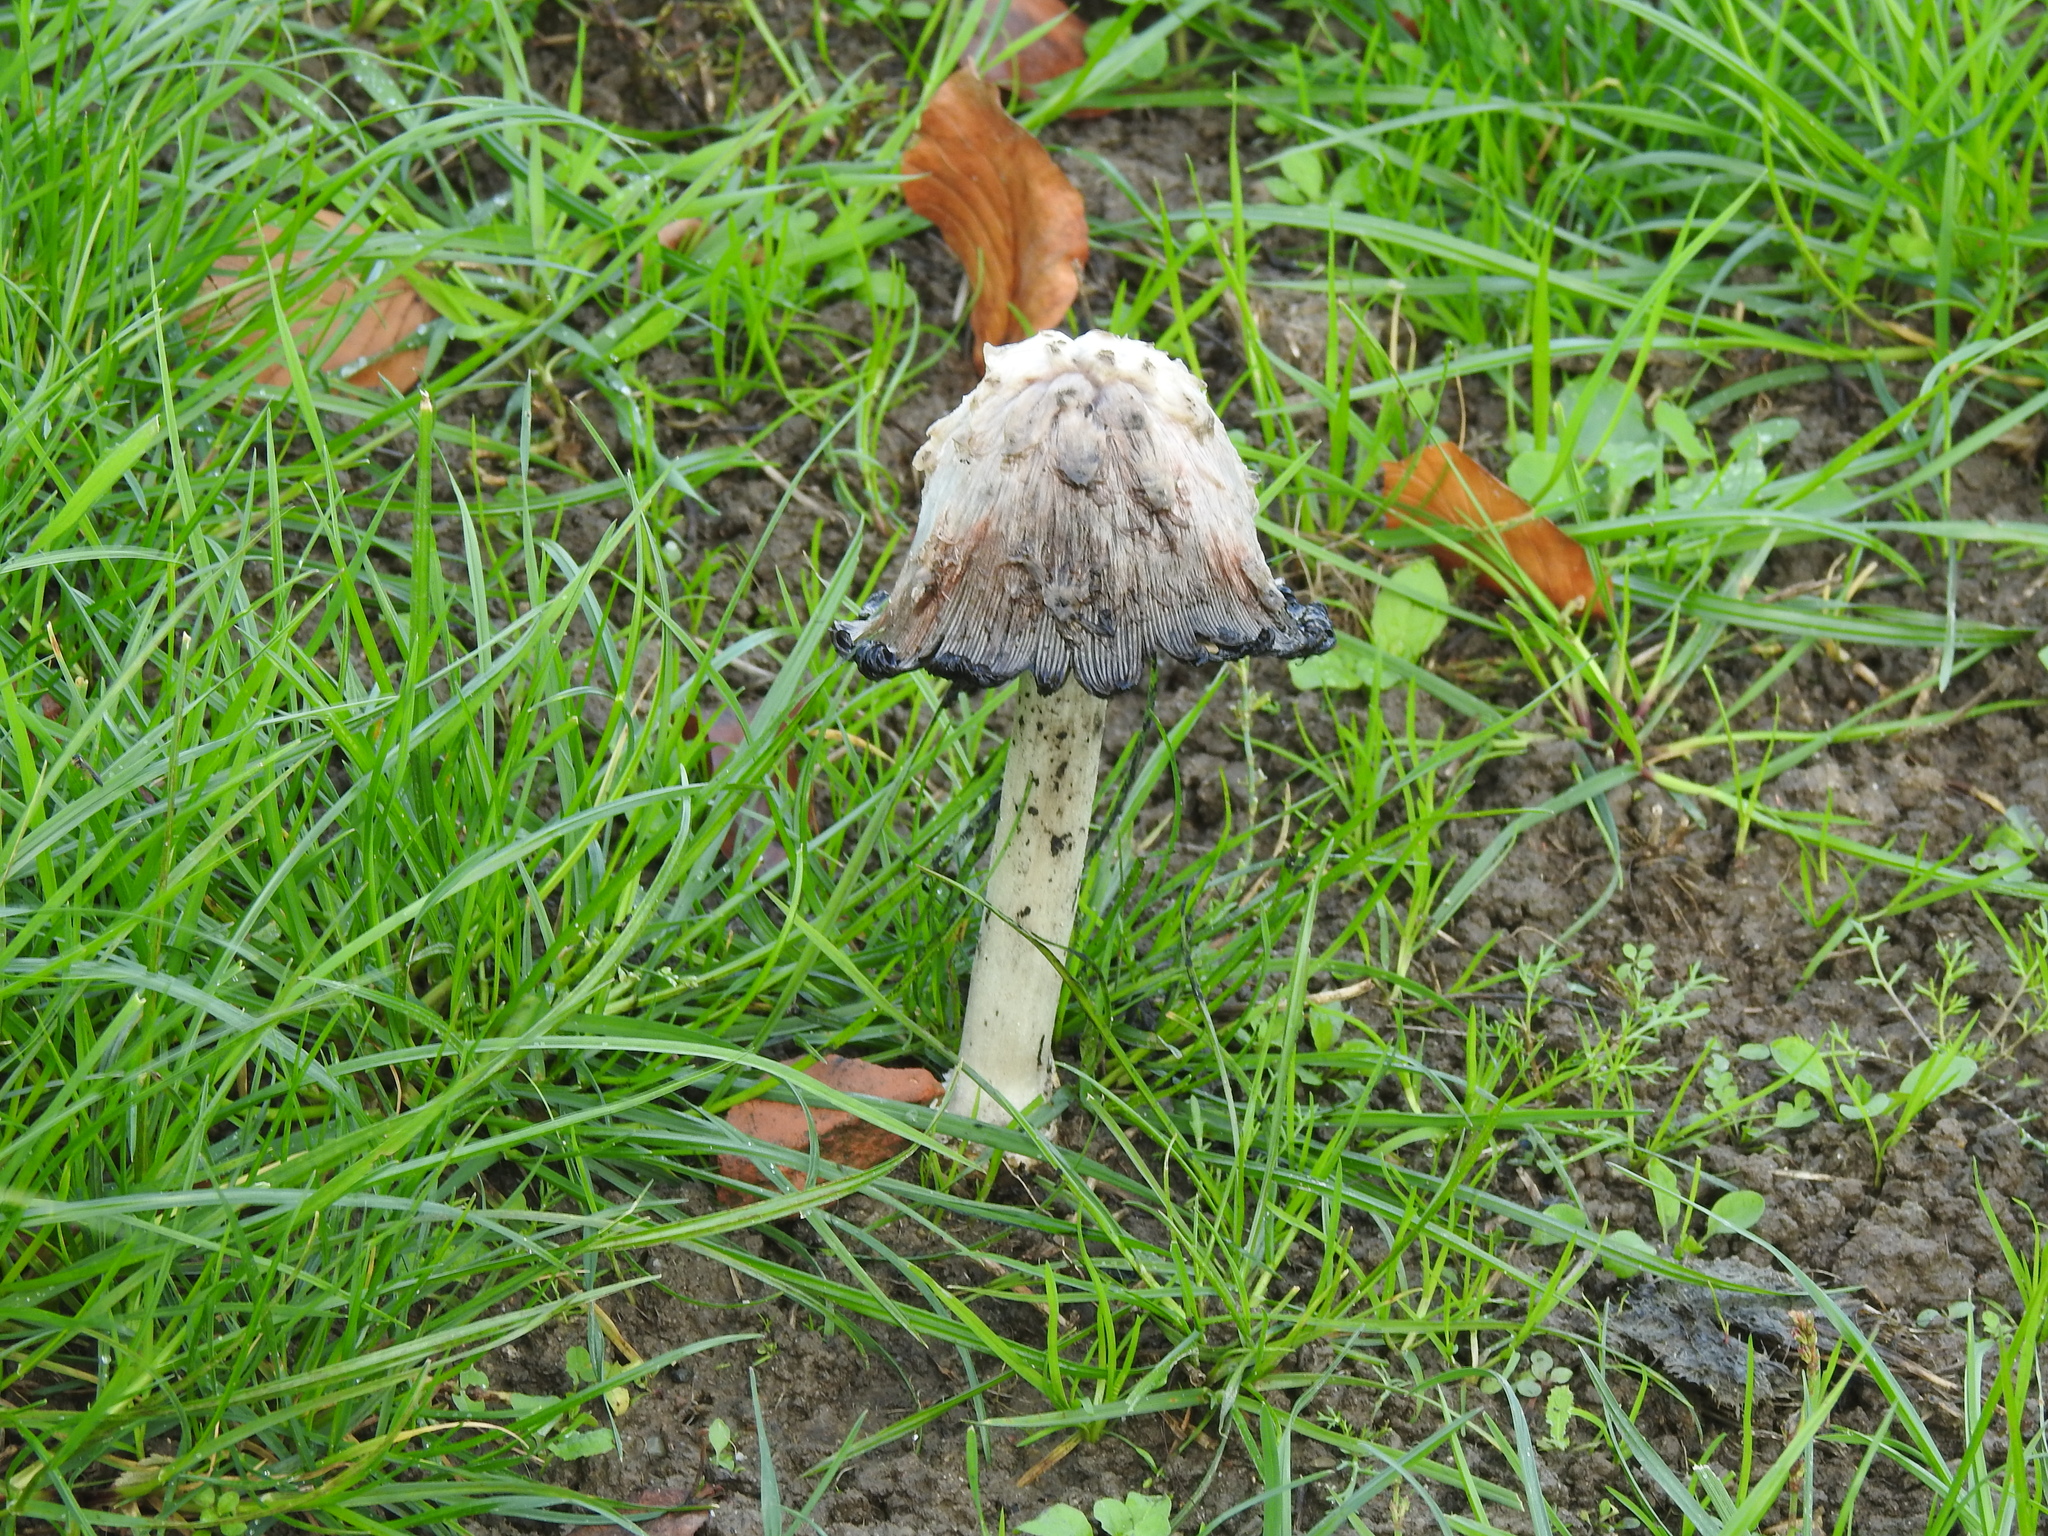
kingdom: Fungi
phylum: Basidiomycota
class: Agaricomycetes
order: Agaricales
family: Agaricaceae
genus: Coprinus
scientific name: Coprinus comatus
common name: Lawyer's wig
